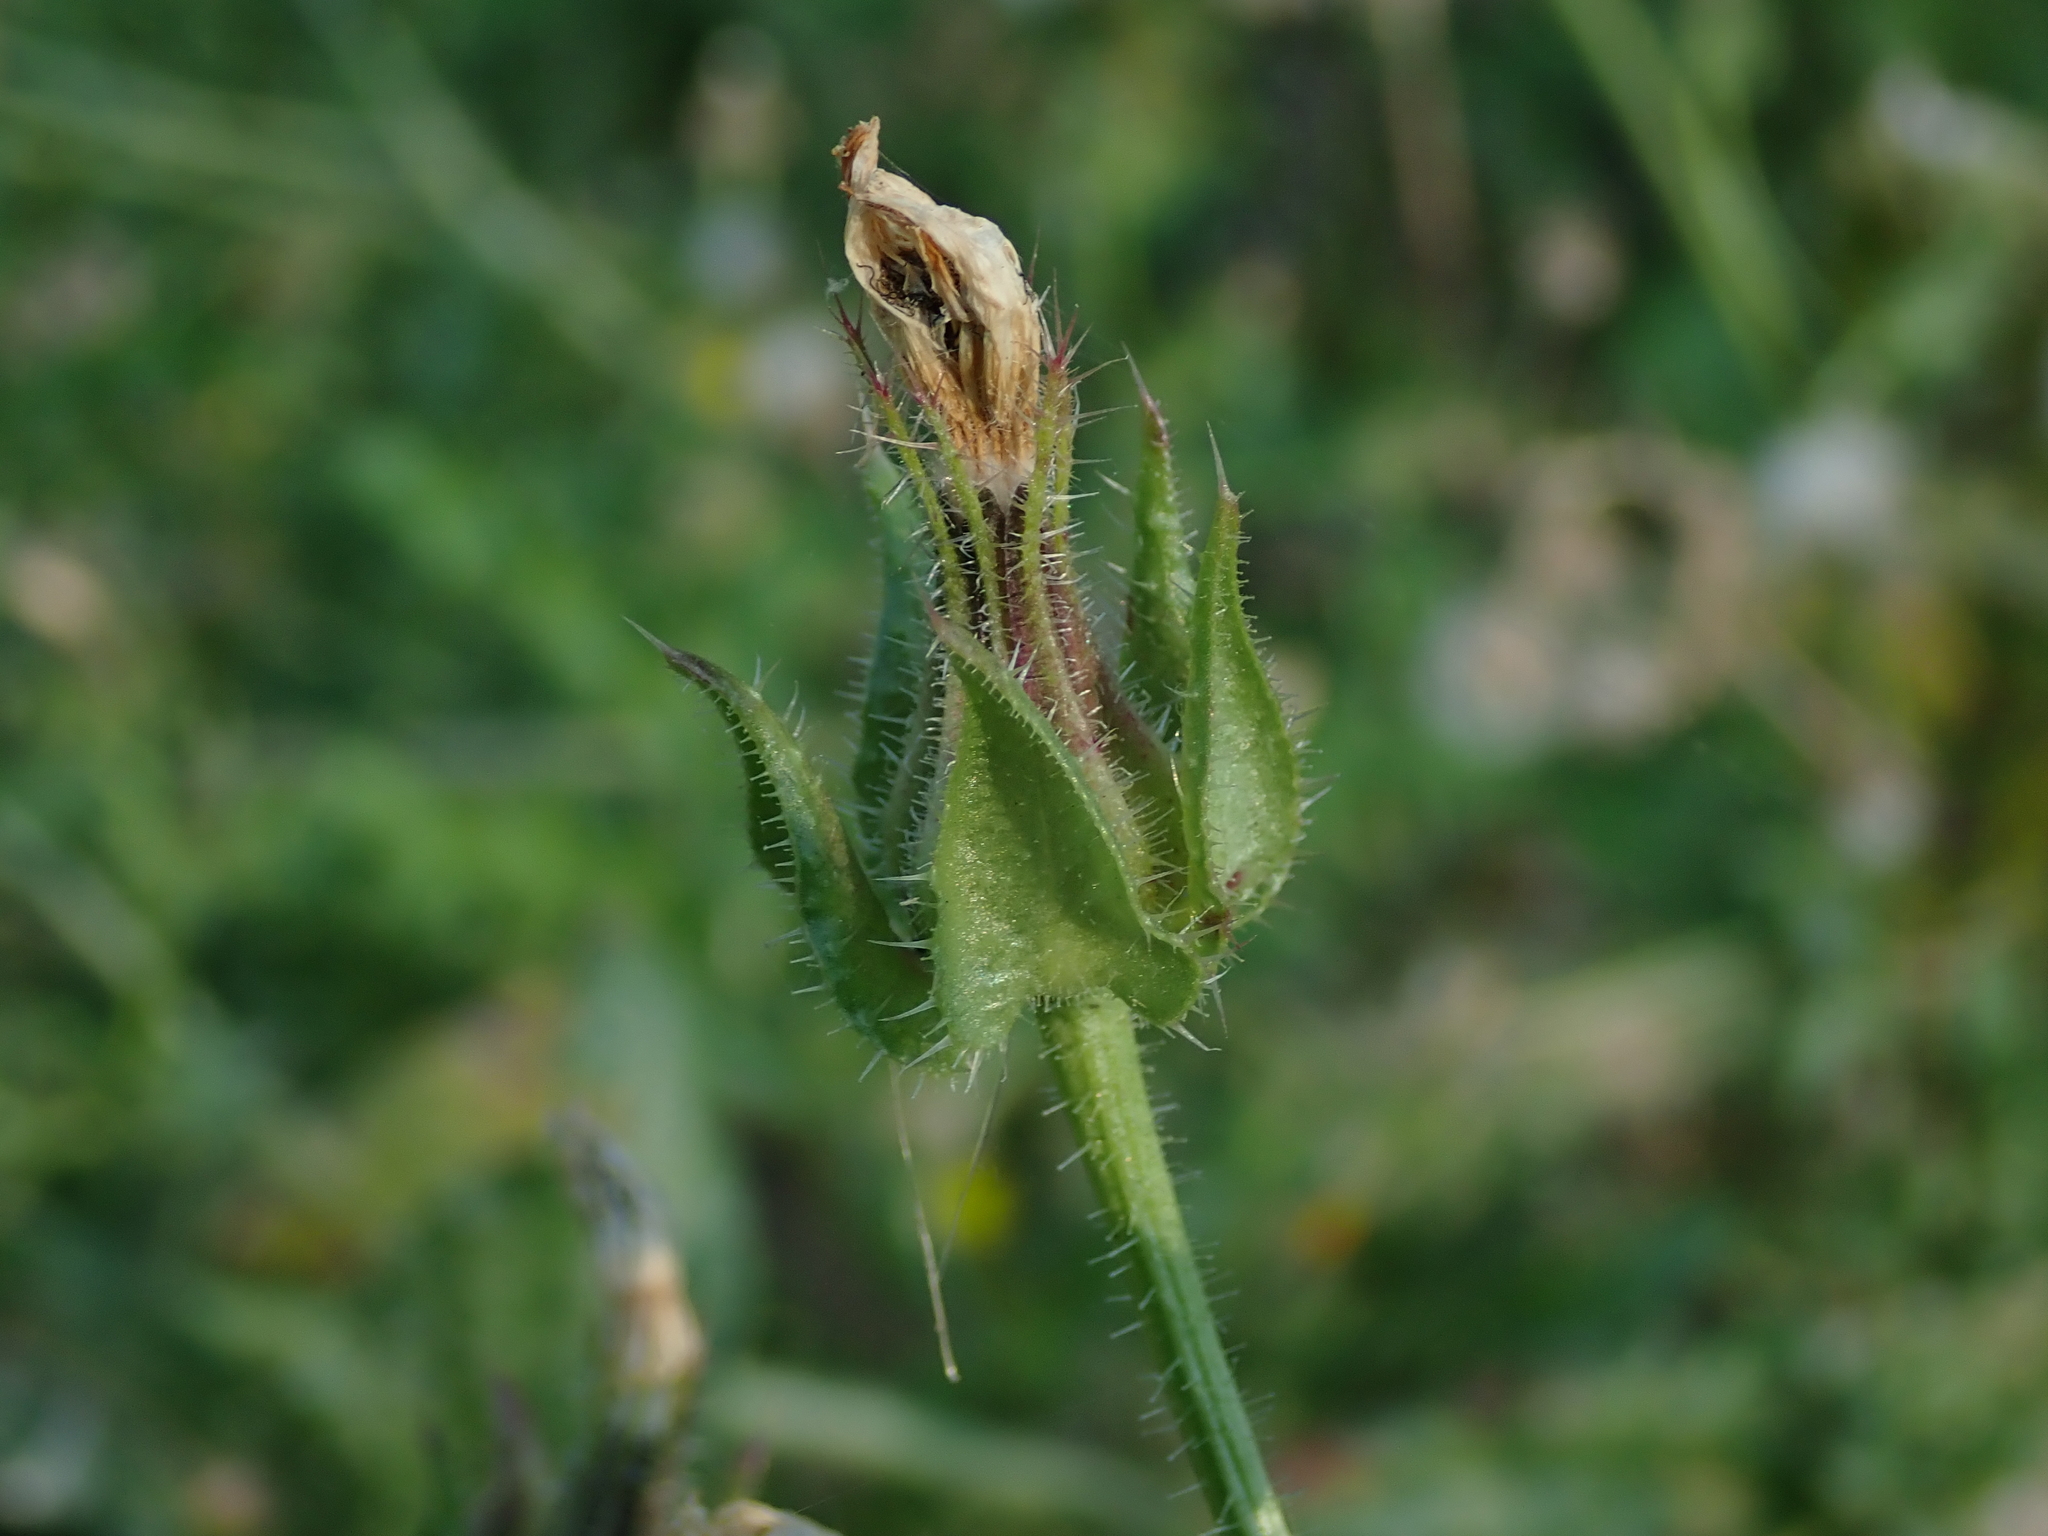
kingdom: Plantae
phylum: Tracheophyta
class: Magnoliopsida
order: Asterales
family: Asteraceae
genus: Helminthotheca
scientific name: Helminthotheca echioides
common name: Ox-tongue
